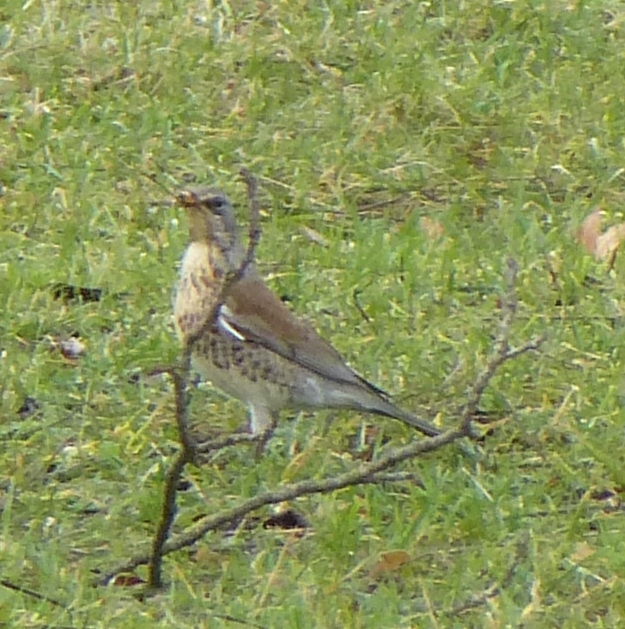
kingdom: Animalia
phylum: Chordata
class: Aves
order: Passeriformes
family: Turdidae
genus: Turdus
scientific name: Turdus pilaris
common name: Fieldfare
